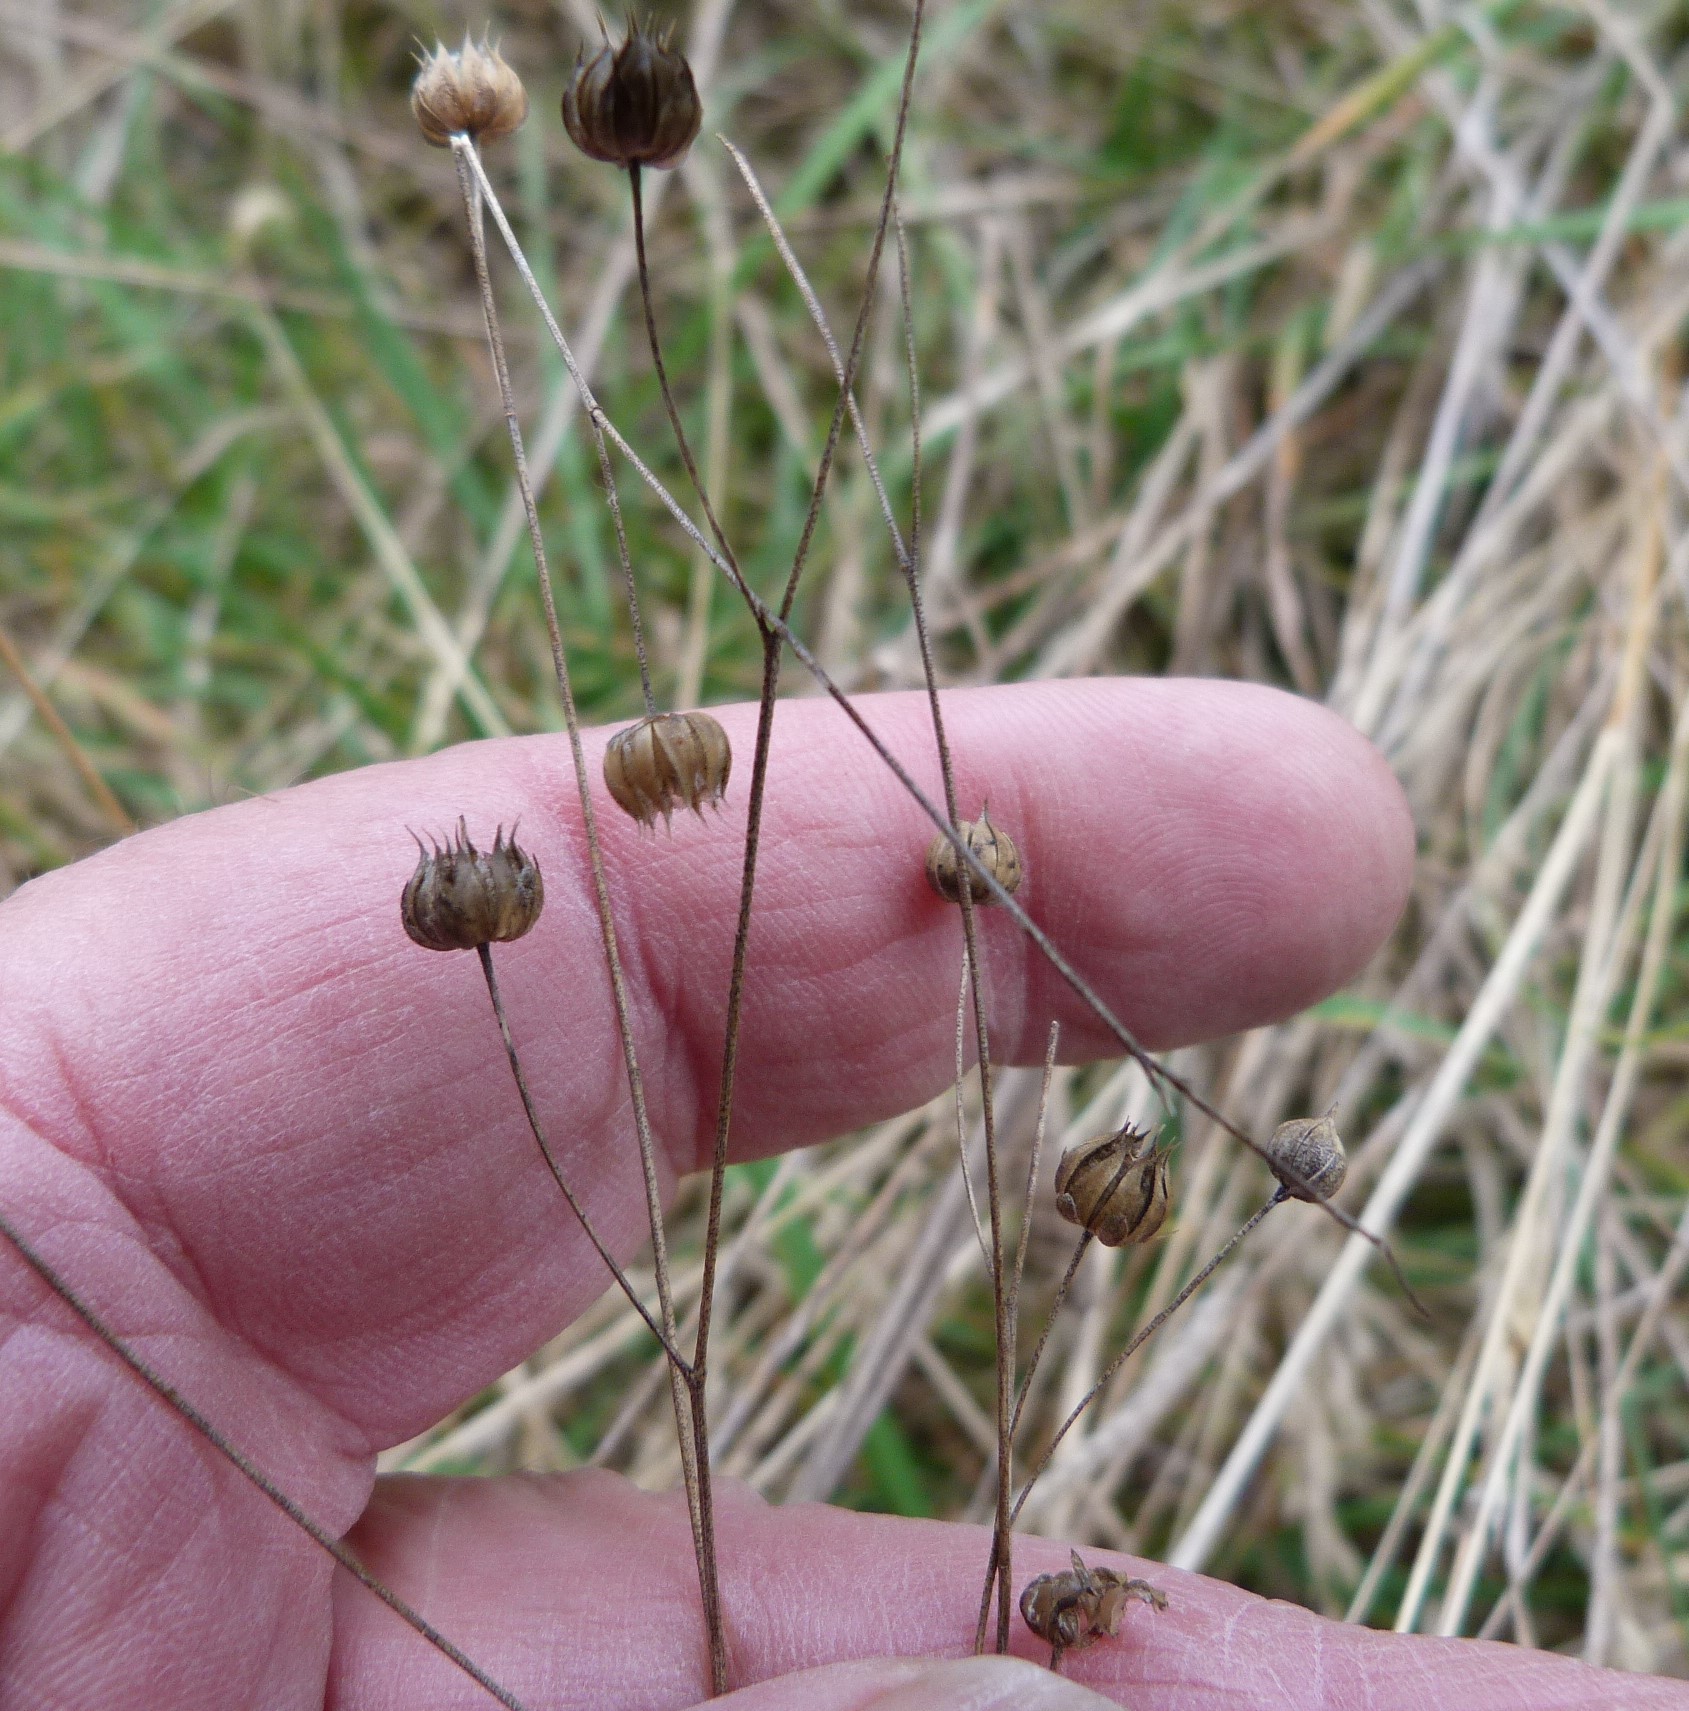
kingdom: Plantae
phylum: Tracheophyta
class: Magnoliopsida
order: Malpighiales
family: Linaceae
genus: Linum
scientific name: Linum bienne
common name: Pale flax
